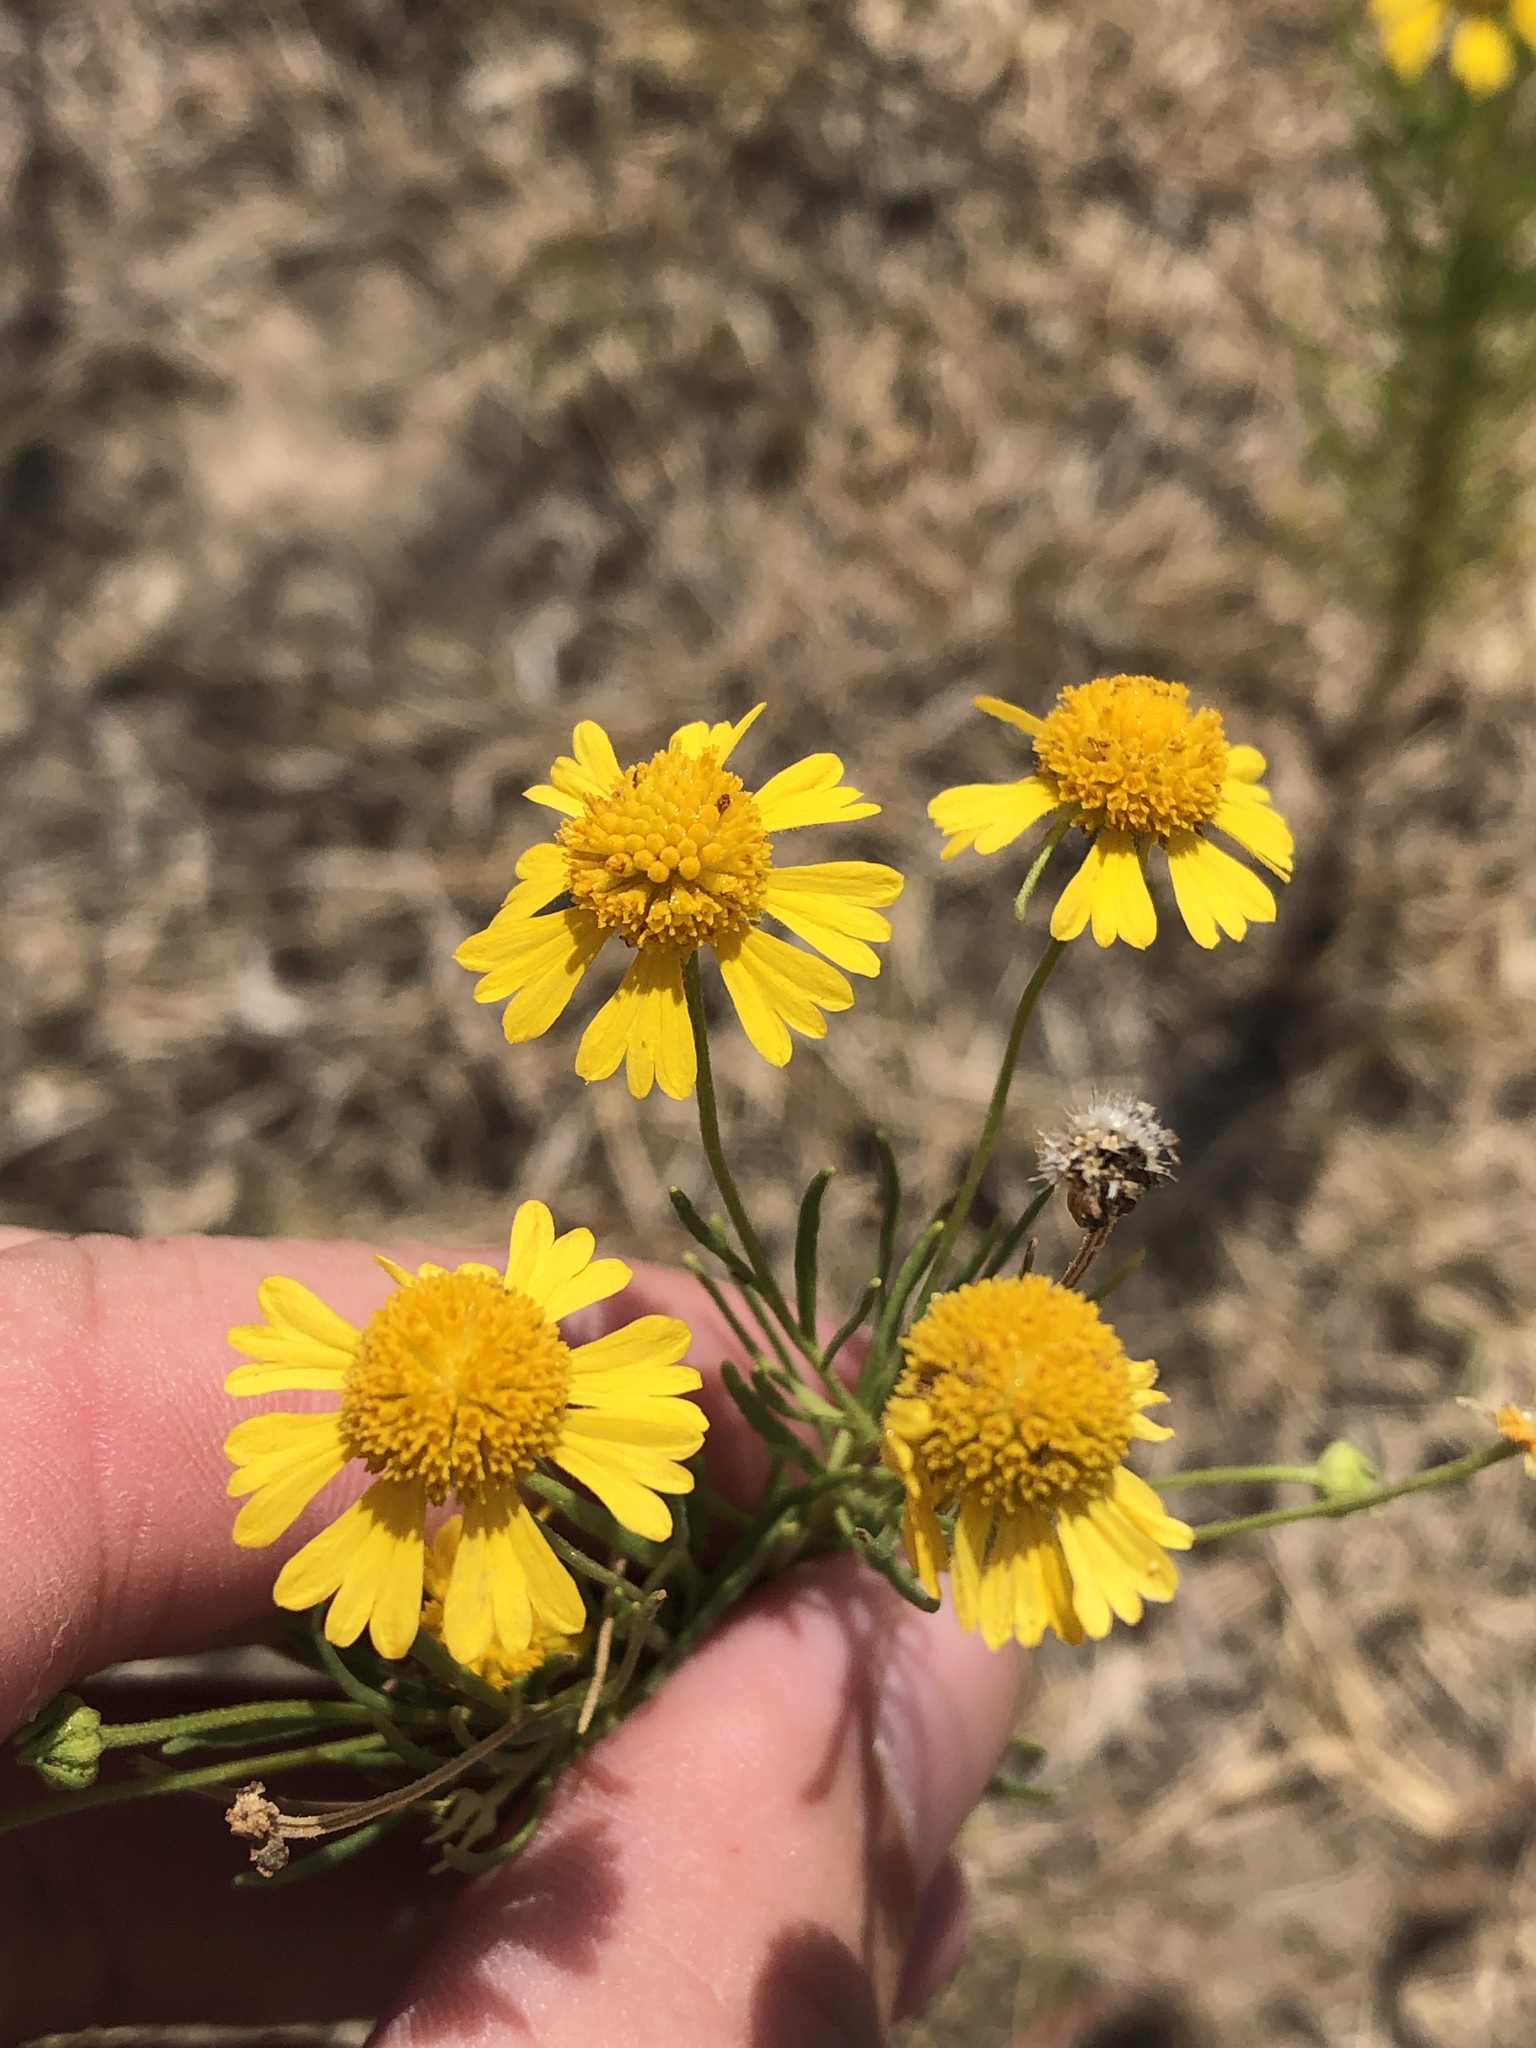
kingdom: Plantae
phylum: Tracheophyta
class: Magnoliopsida
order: Asterales
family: Asteraceae
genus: Helenium
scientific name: Helenium amarum
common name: Bitter sneezeweed
